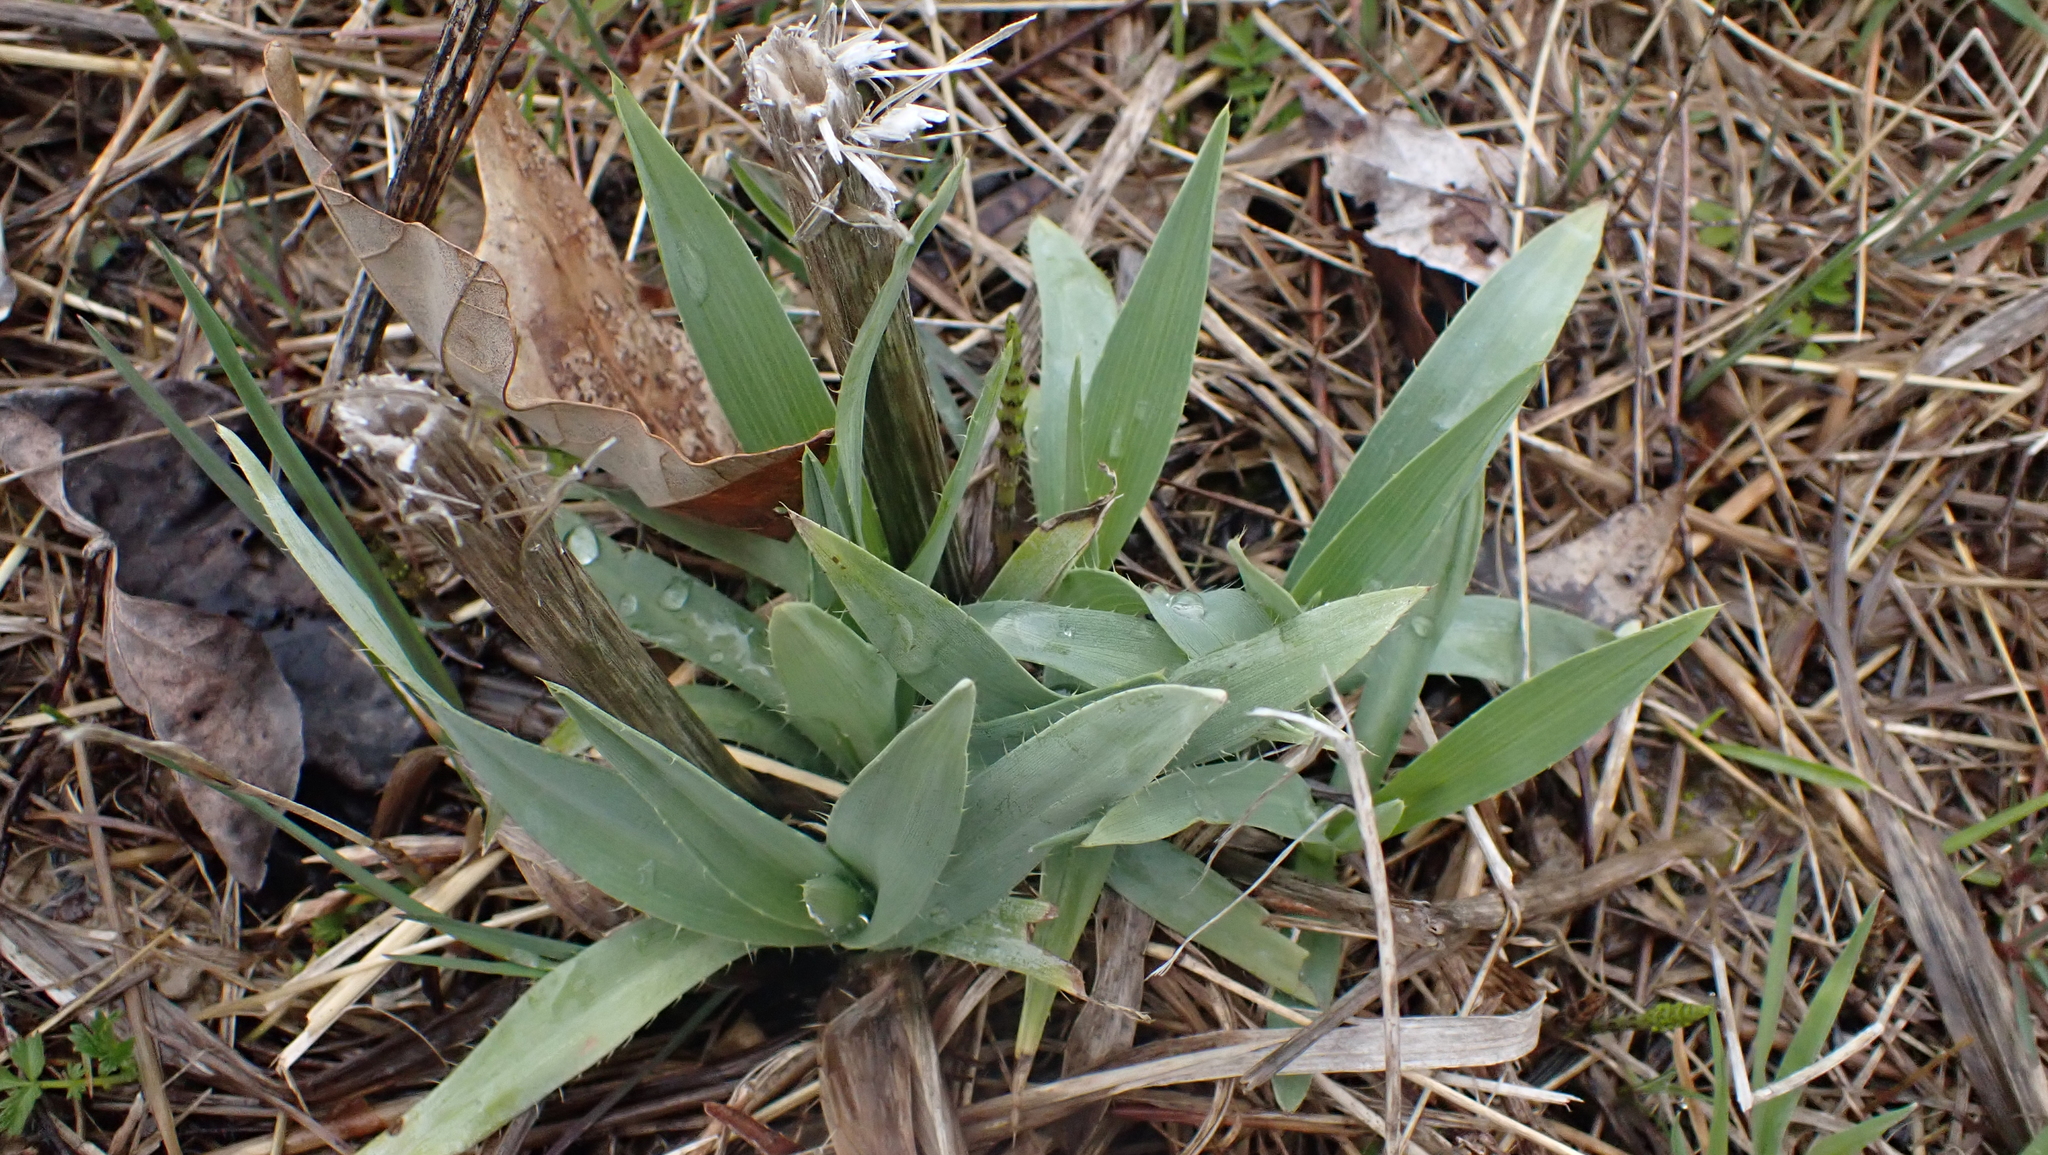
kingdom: Plantae
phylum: Tracheophyta
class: Magnoliopsida
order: Apiales
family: Apiaceae
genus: Eryngium
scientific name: Eryngium yuccifolium
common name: Button eryngo
